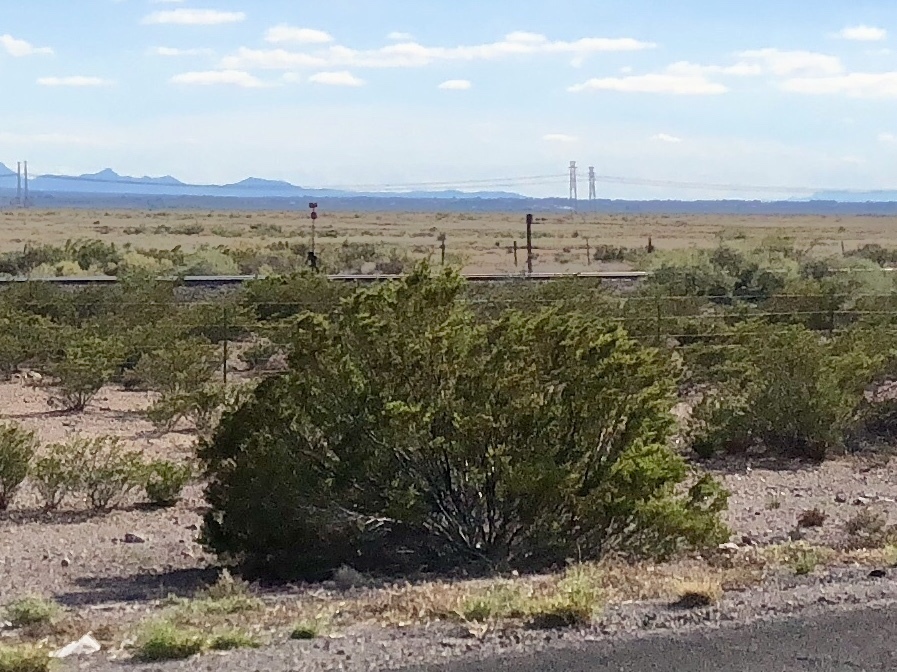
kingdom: Plantae
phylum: Tracheophyta
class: Magnoliopsida
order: Zygophyllales
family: Zygophyllaceae
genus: Larrea
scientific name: Larrea tridentata
